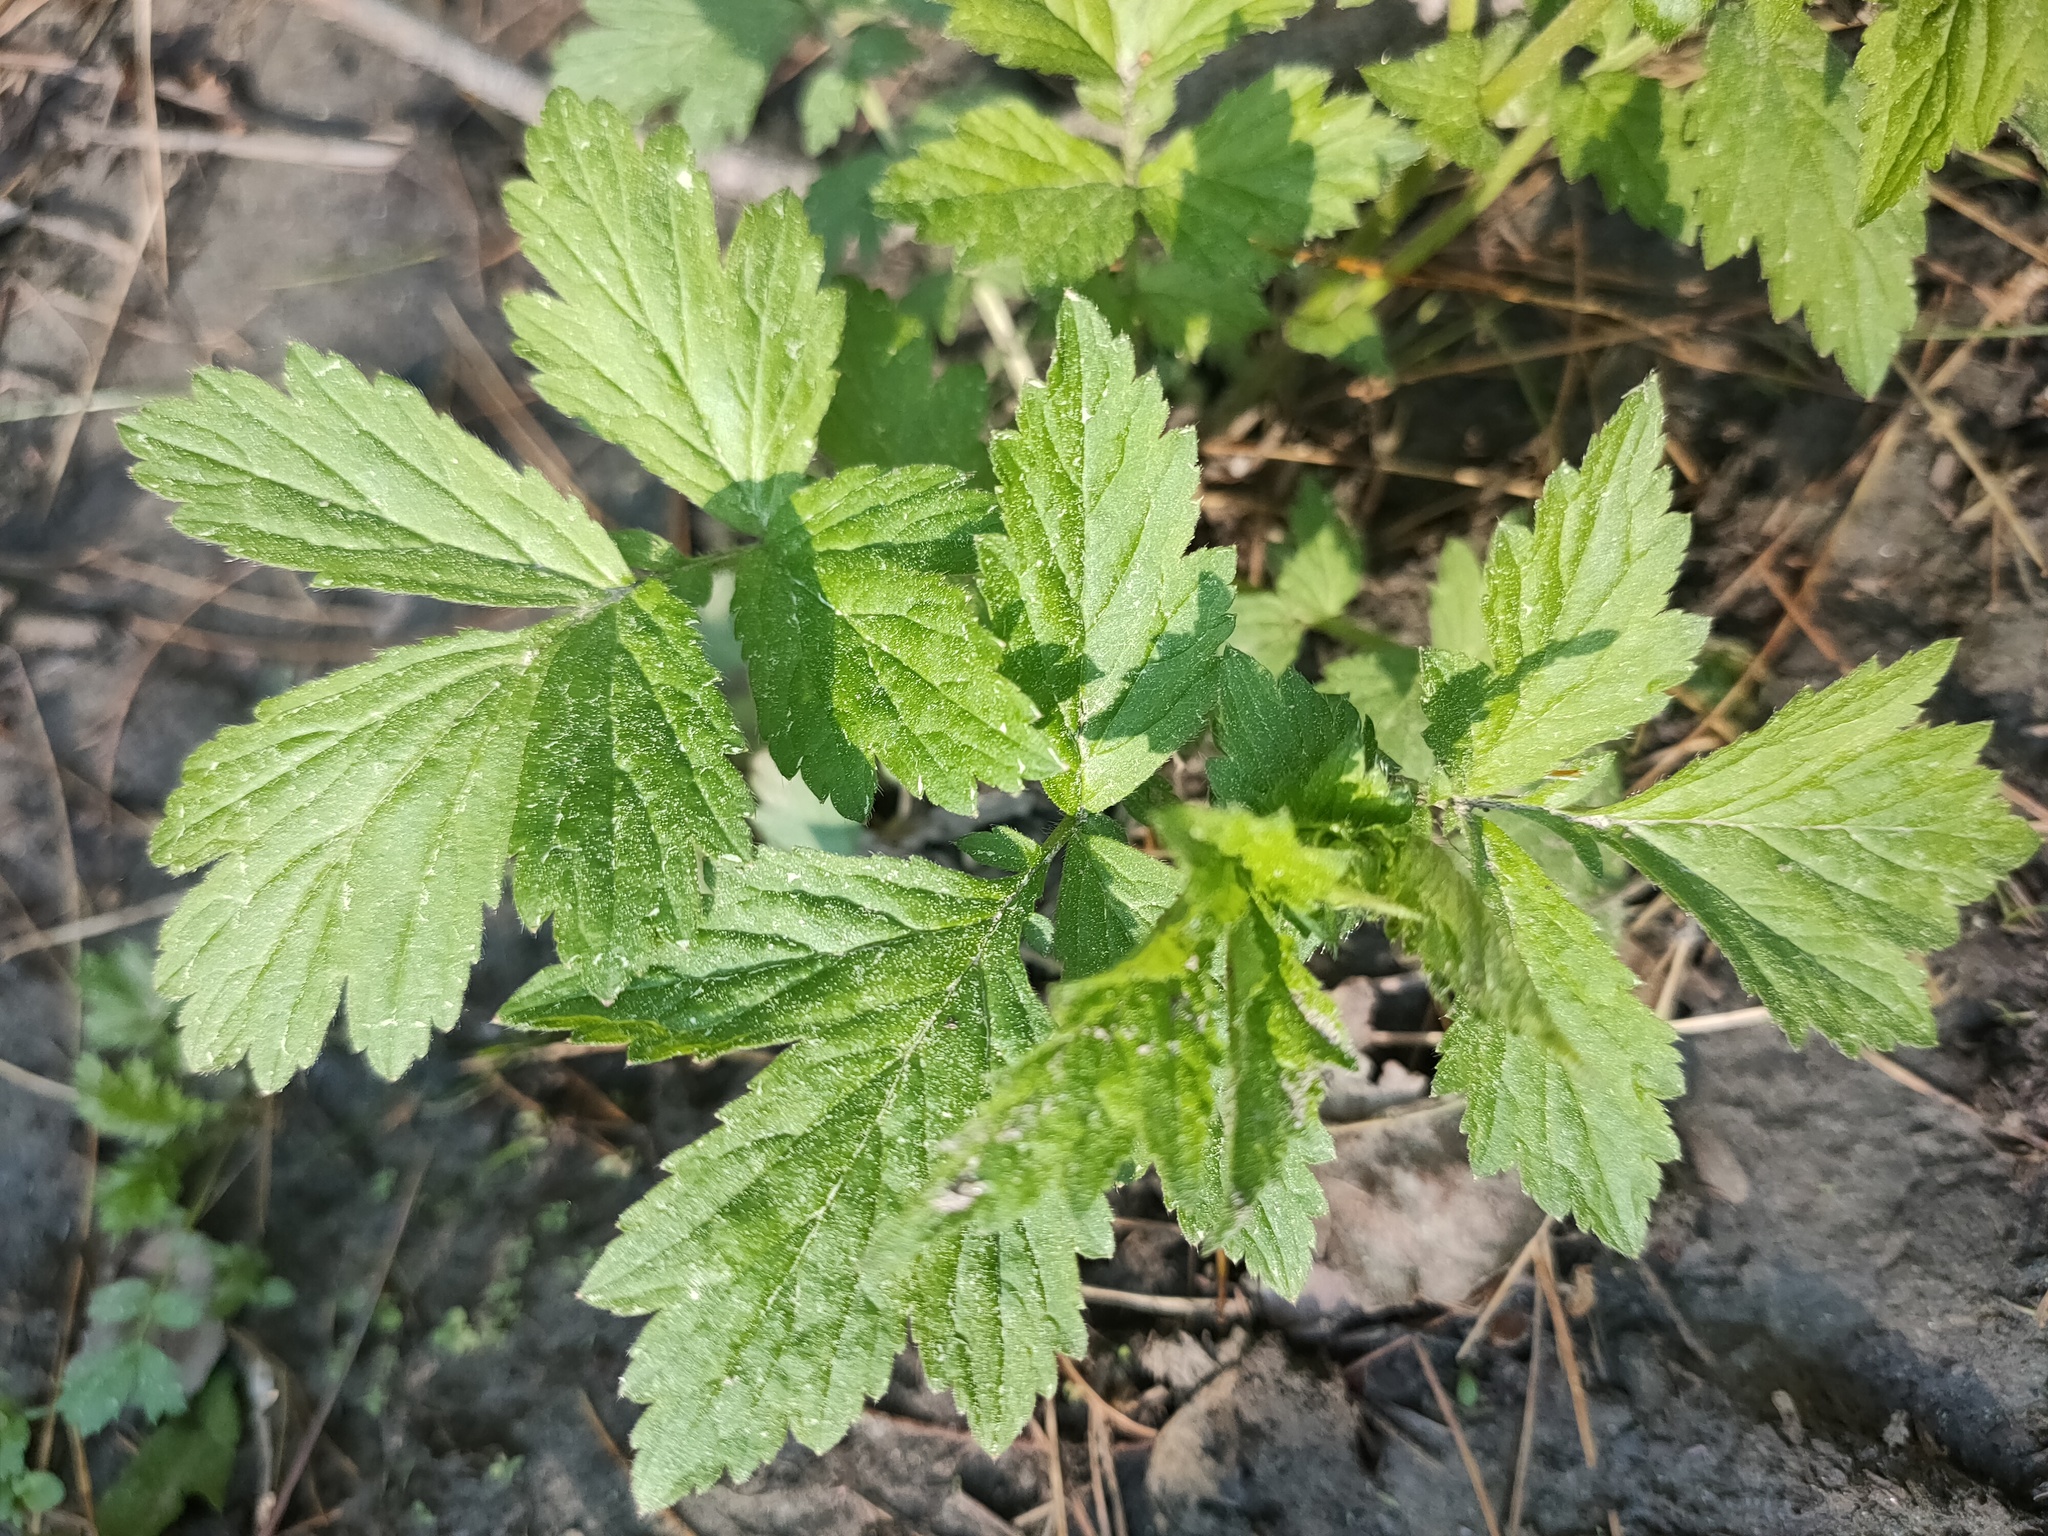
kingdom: Plantae
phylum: Tracheophyta
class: Magnoliopsida
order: Rosales
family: Rosaceae
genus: Geum
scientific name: Geum aleppicum
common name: Yellow avens
